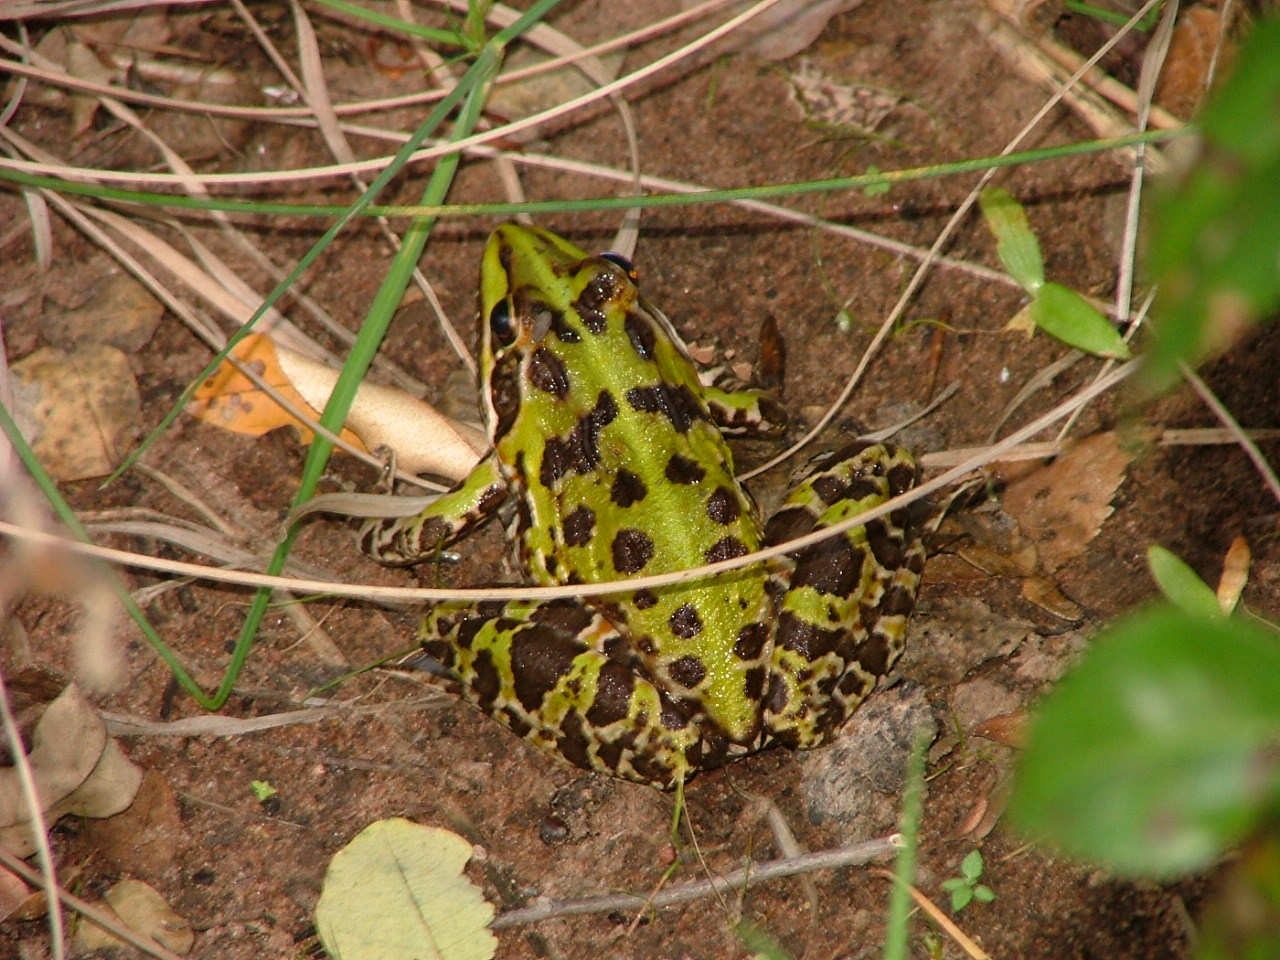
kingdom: Animalia
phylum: Chordata
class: Amphibia
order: Anura
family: Pyxicephalidae
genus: Amietia
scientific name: Amietia delalandii
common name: Delalande's river frog
